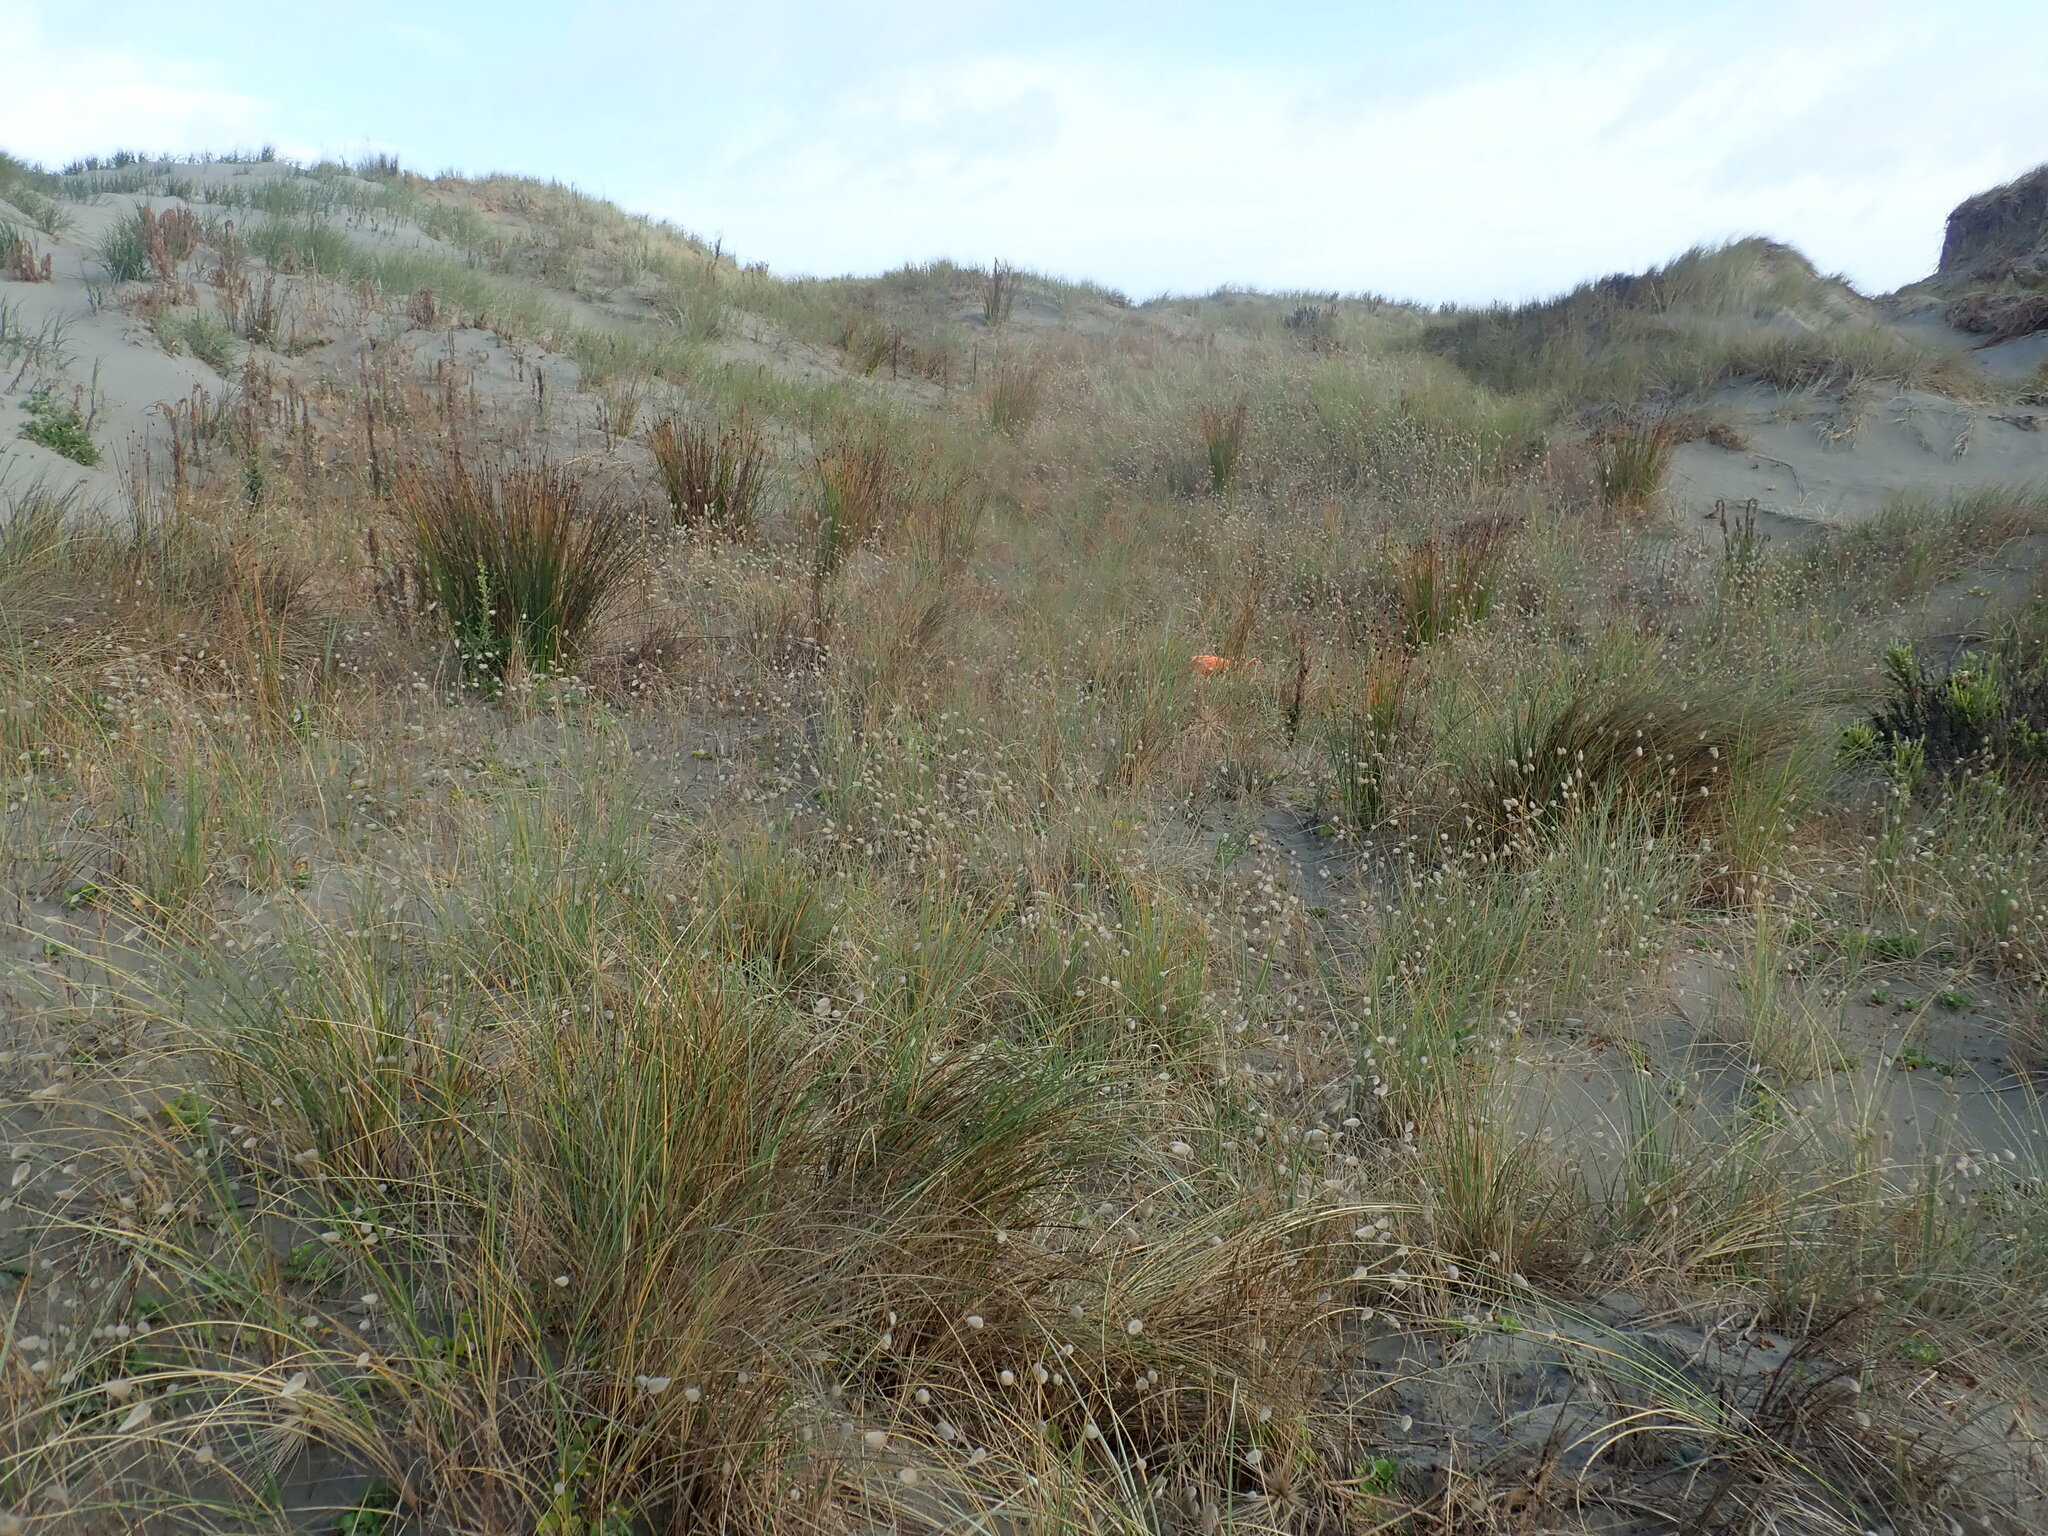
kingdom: Animalia
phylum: Arthropoda
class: Arachnida
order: Araneae
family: Theridiidae
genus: Latrodectus
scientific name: Latrodectus katipo
